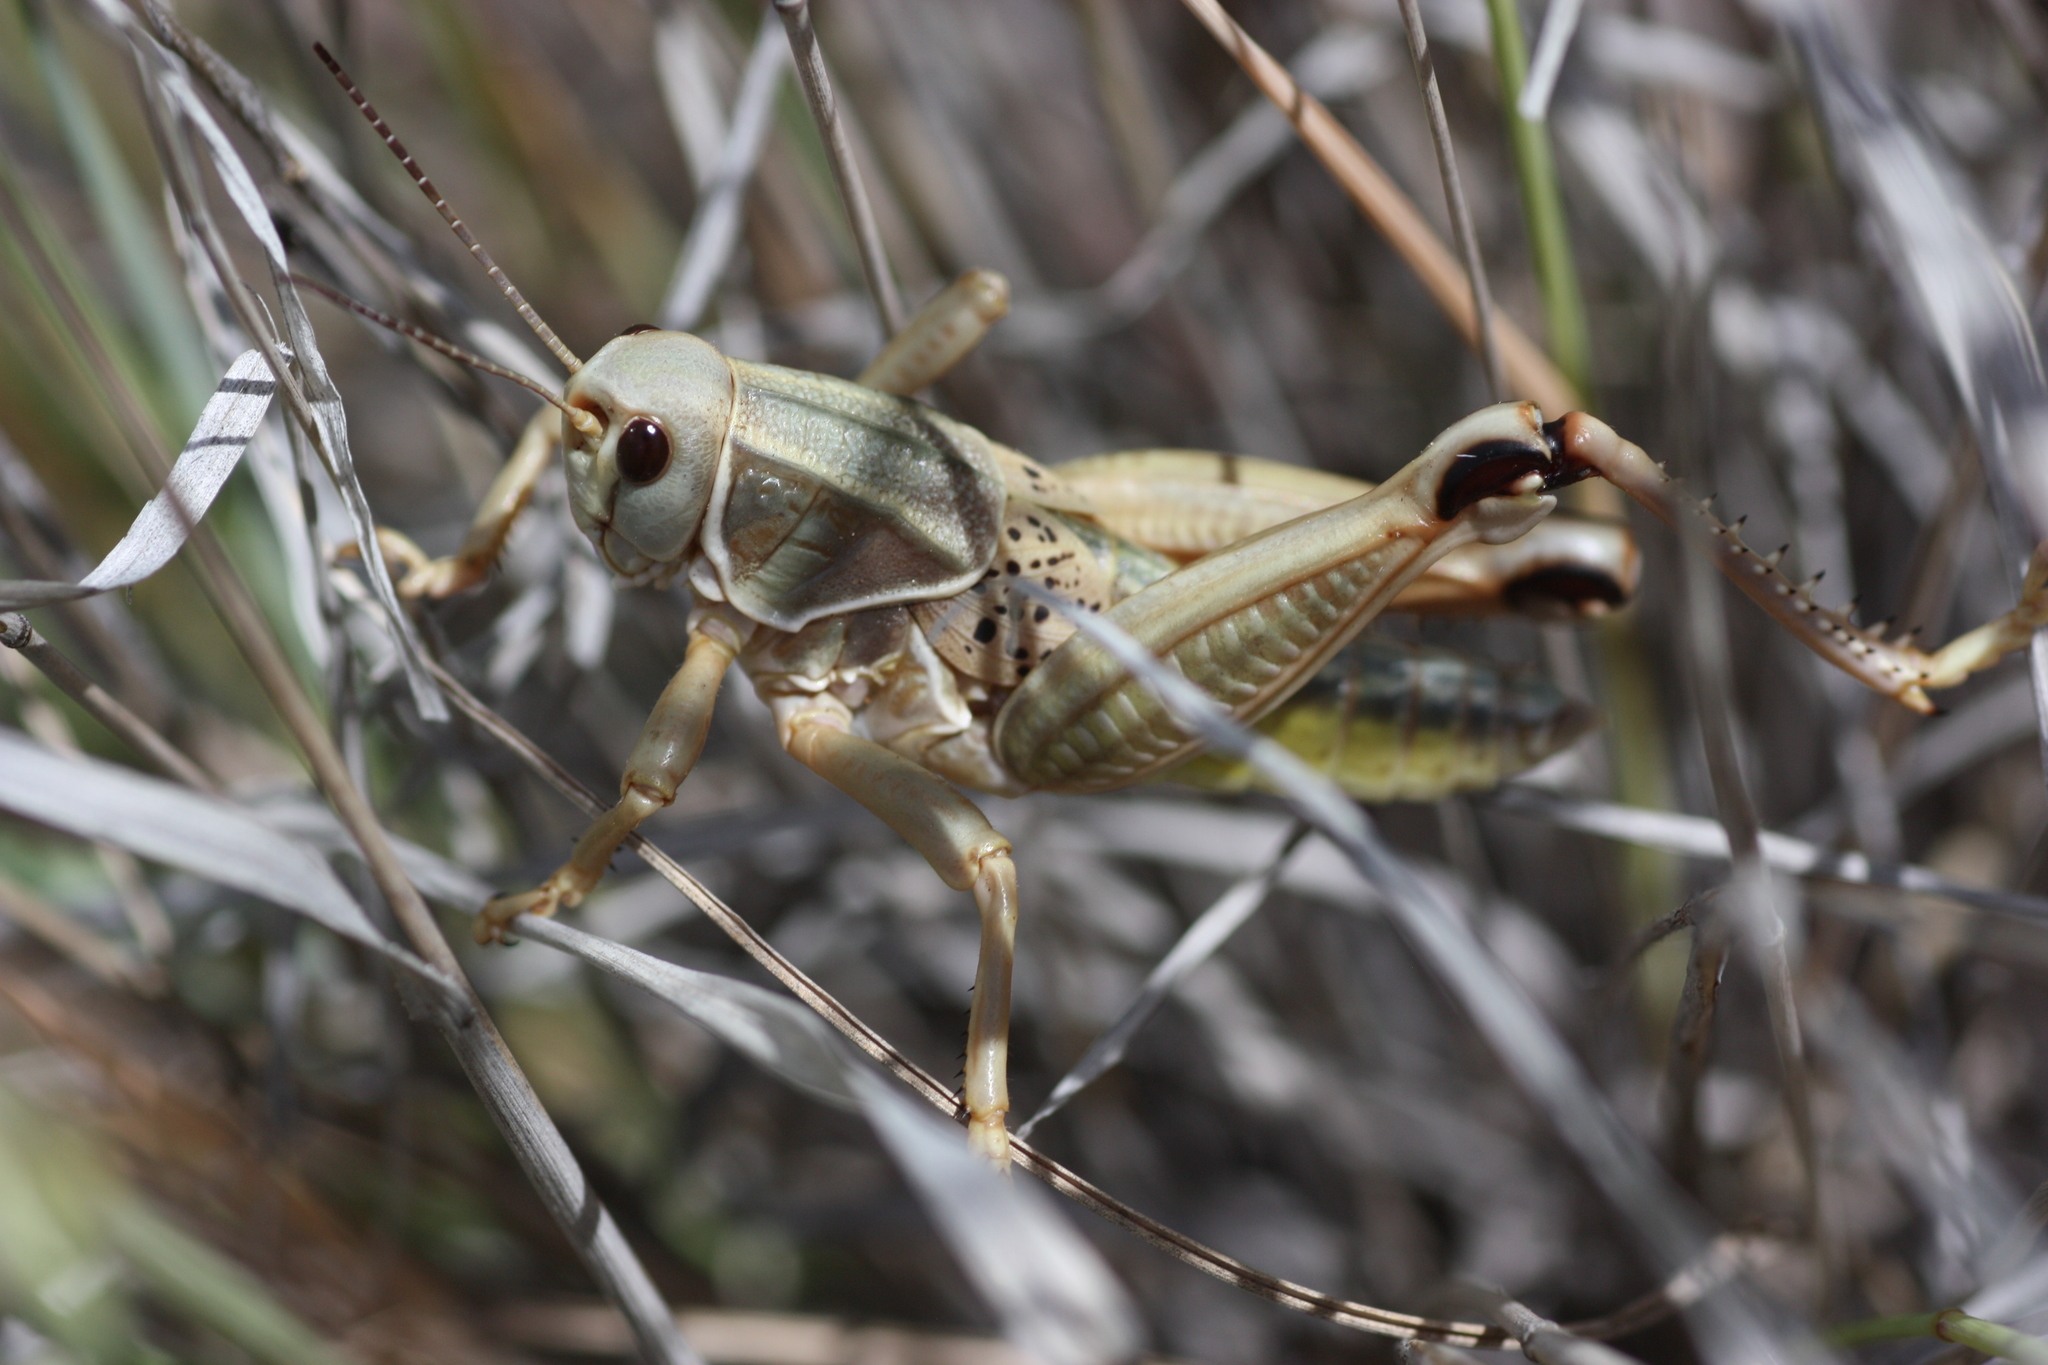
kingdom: Animalia
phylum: Arthropoda
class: Insecta
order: Orthoptera
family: Romaleidae
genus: Brachystola
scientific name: Brachystola magna
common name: Plains lubber grasshopper
